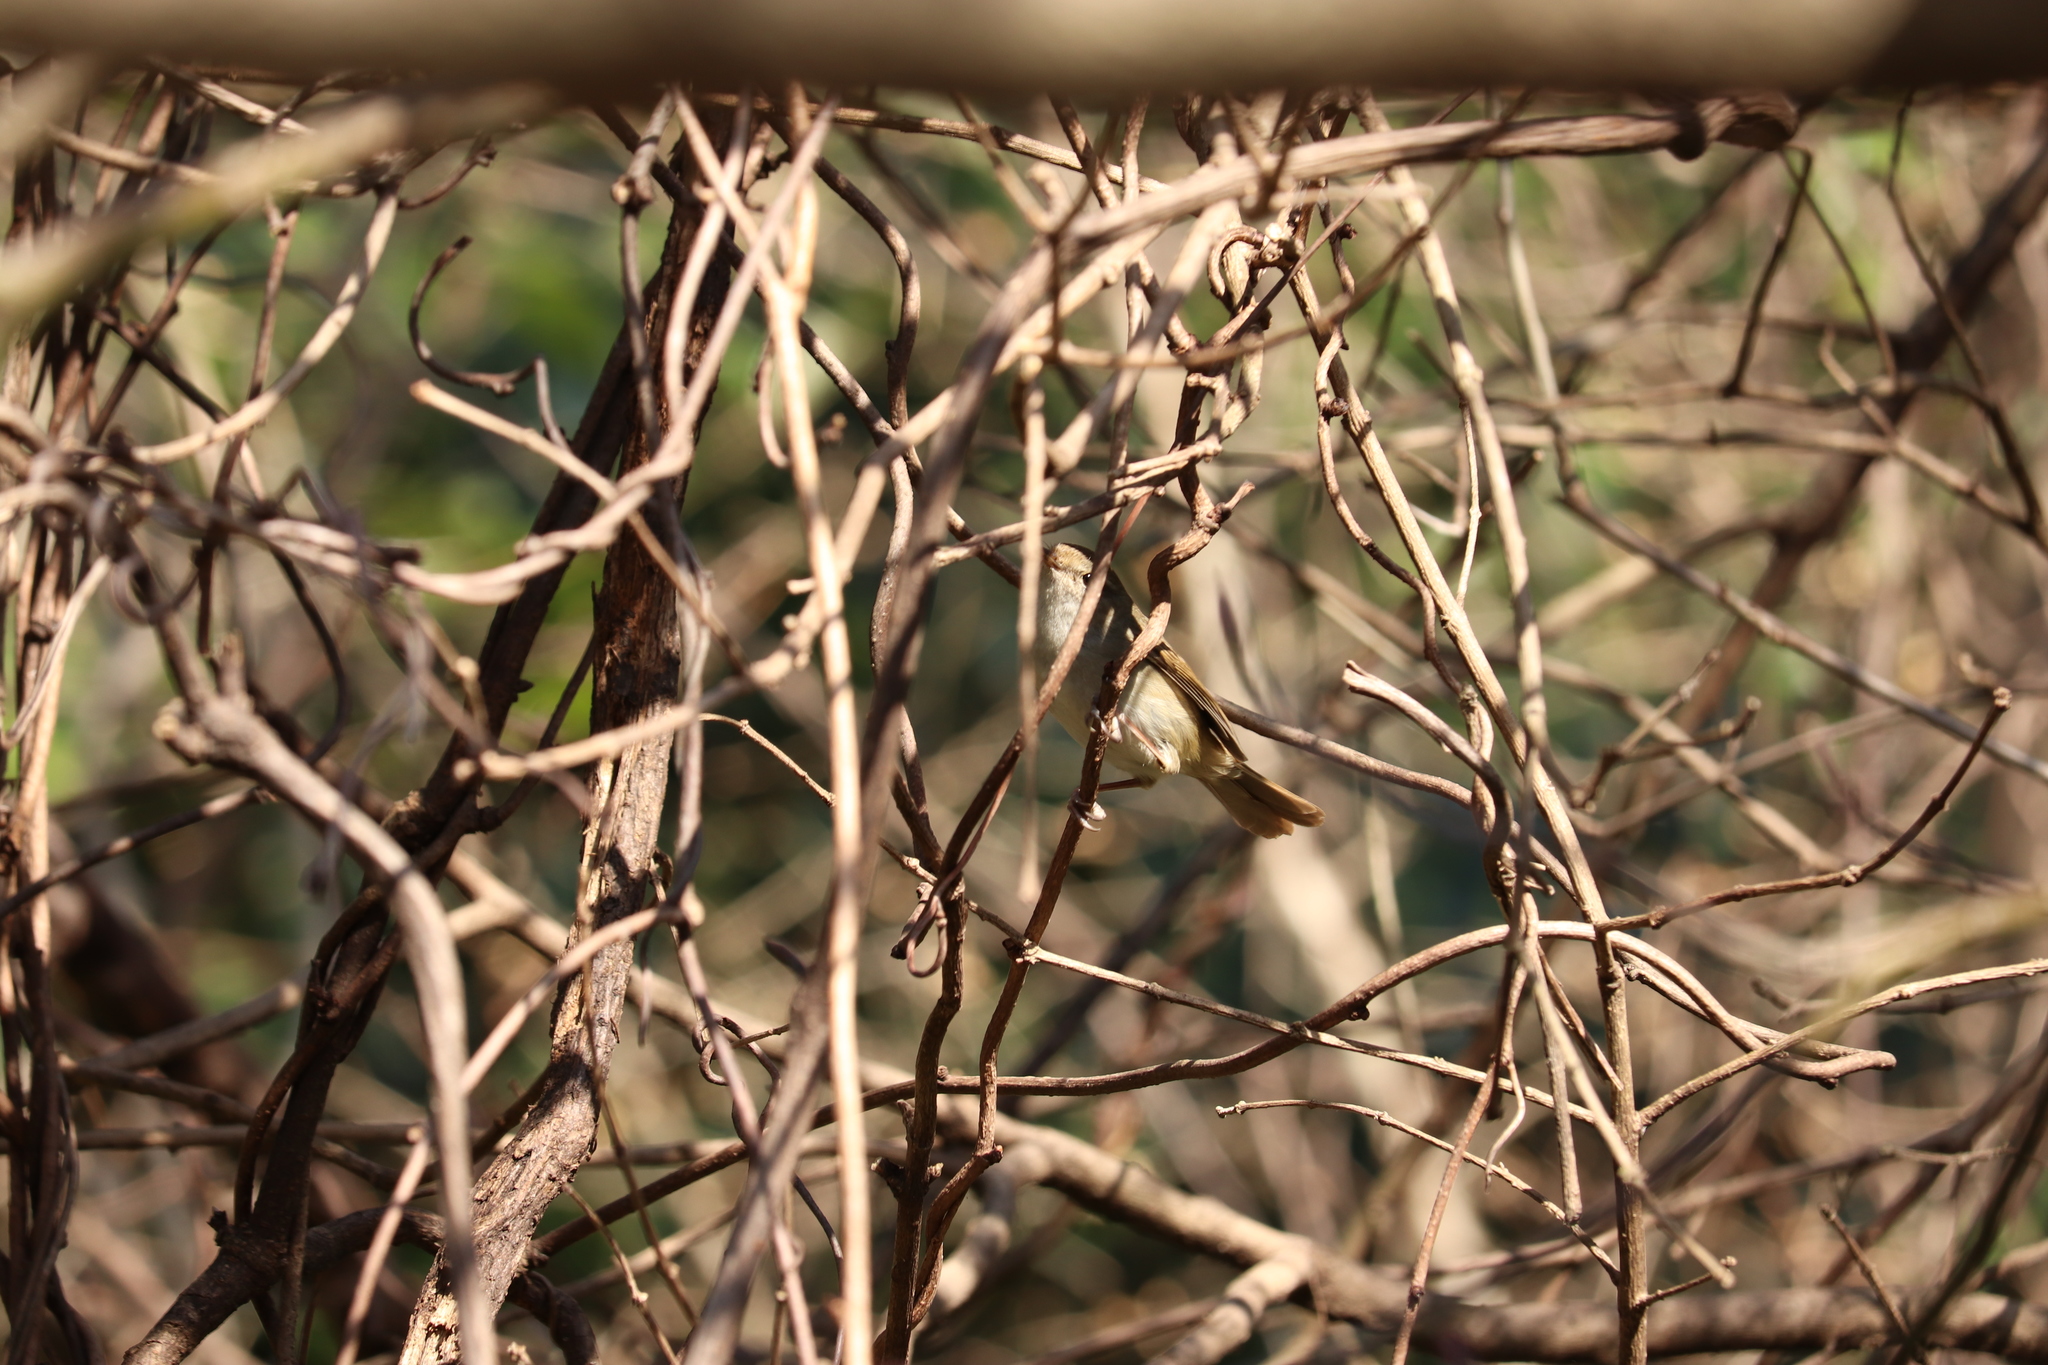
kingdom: Animalia
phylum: Chordata
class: Aves
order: Passeriformes
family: Cettiidae
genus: Horornis
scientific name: Horornis diphone
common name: Japanese bush warbler
